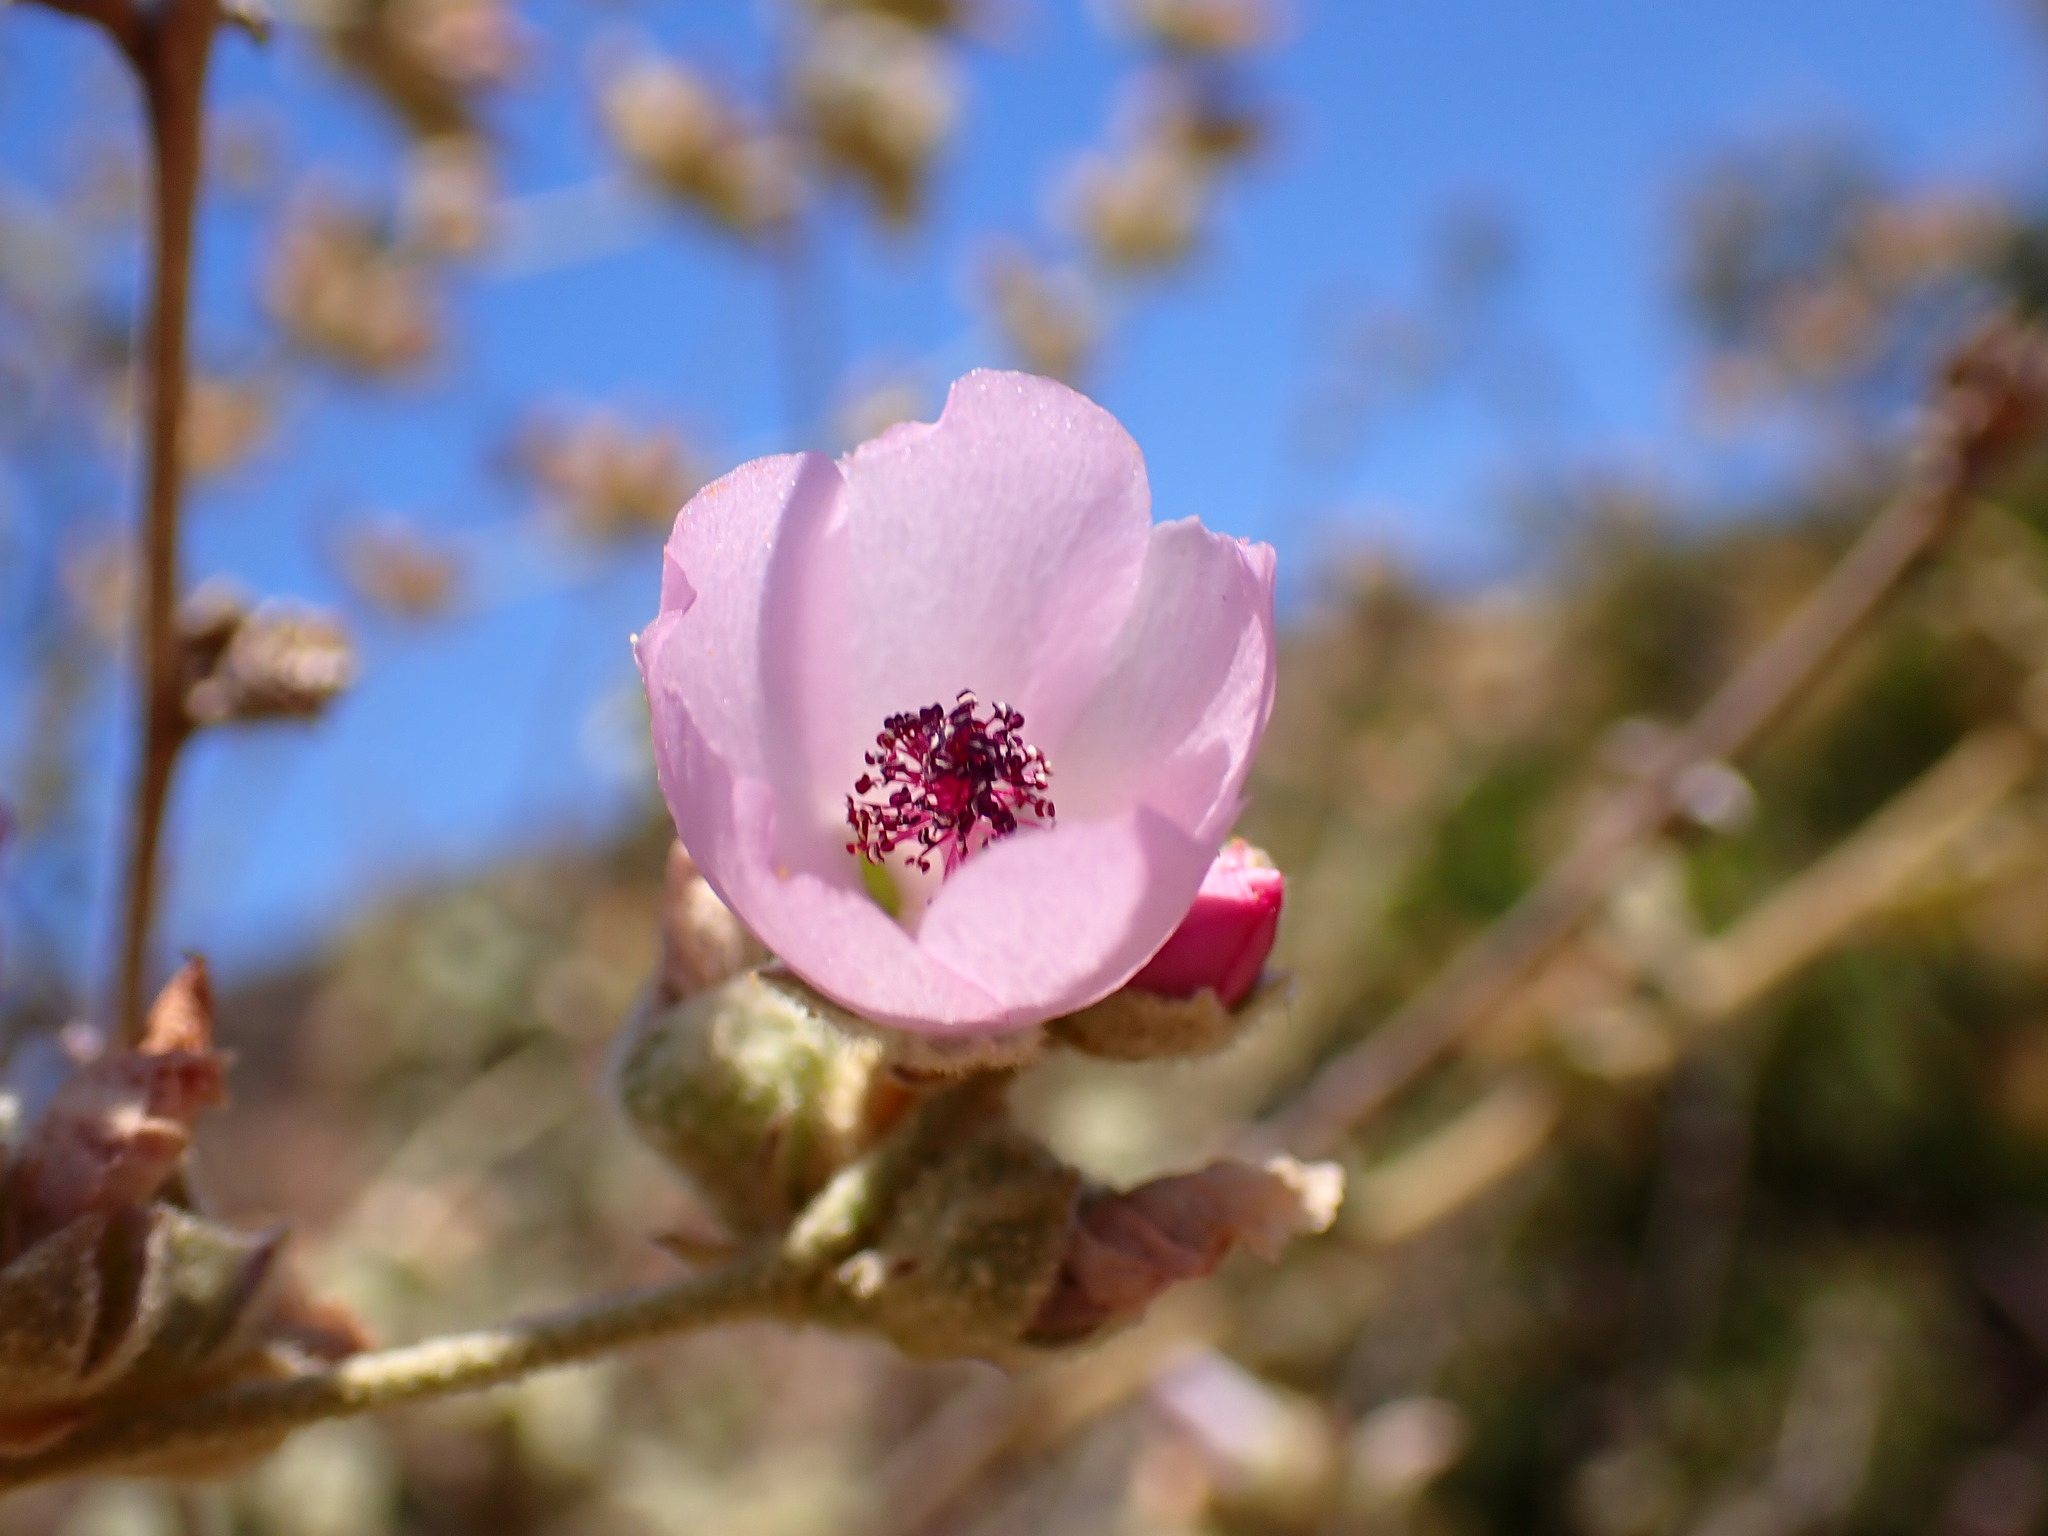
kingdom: Plantae
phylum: Tracheophyta
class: Magnoliopsida
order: Malvales
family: Malvaceae
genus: Malacothamnus
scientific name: Malacothamnus fasciculatus
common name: Sant cruz island bush-mallow
